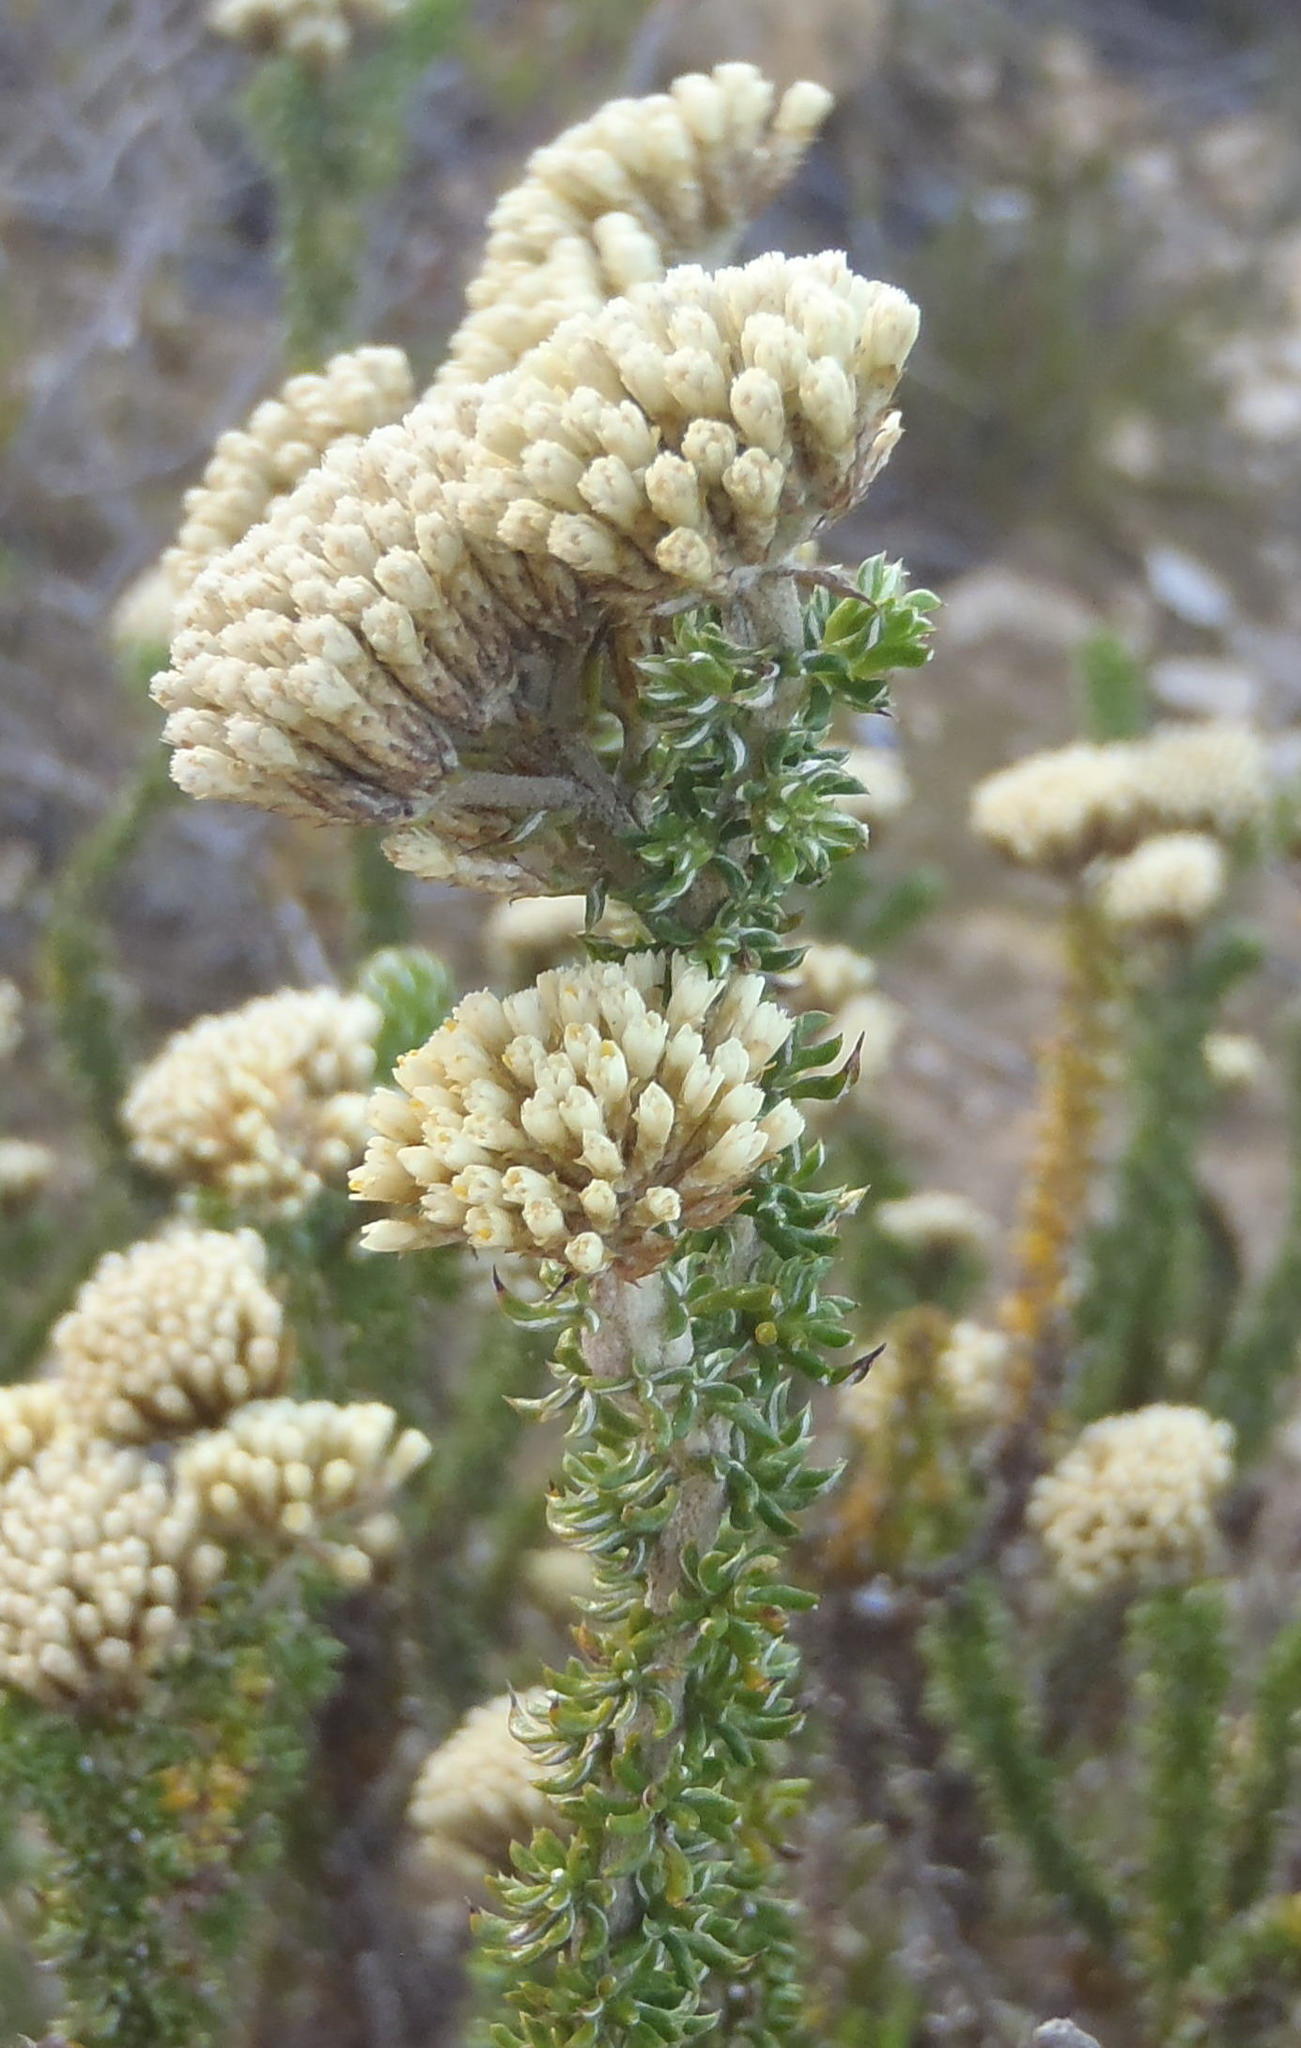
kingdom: Plantae
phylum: Tracheophyta
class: Magnoliopsida
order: Asterales
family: Asteraceae
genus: Metalasia
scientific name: Metalasia luteola
